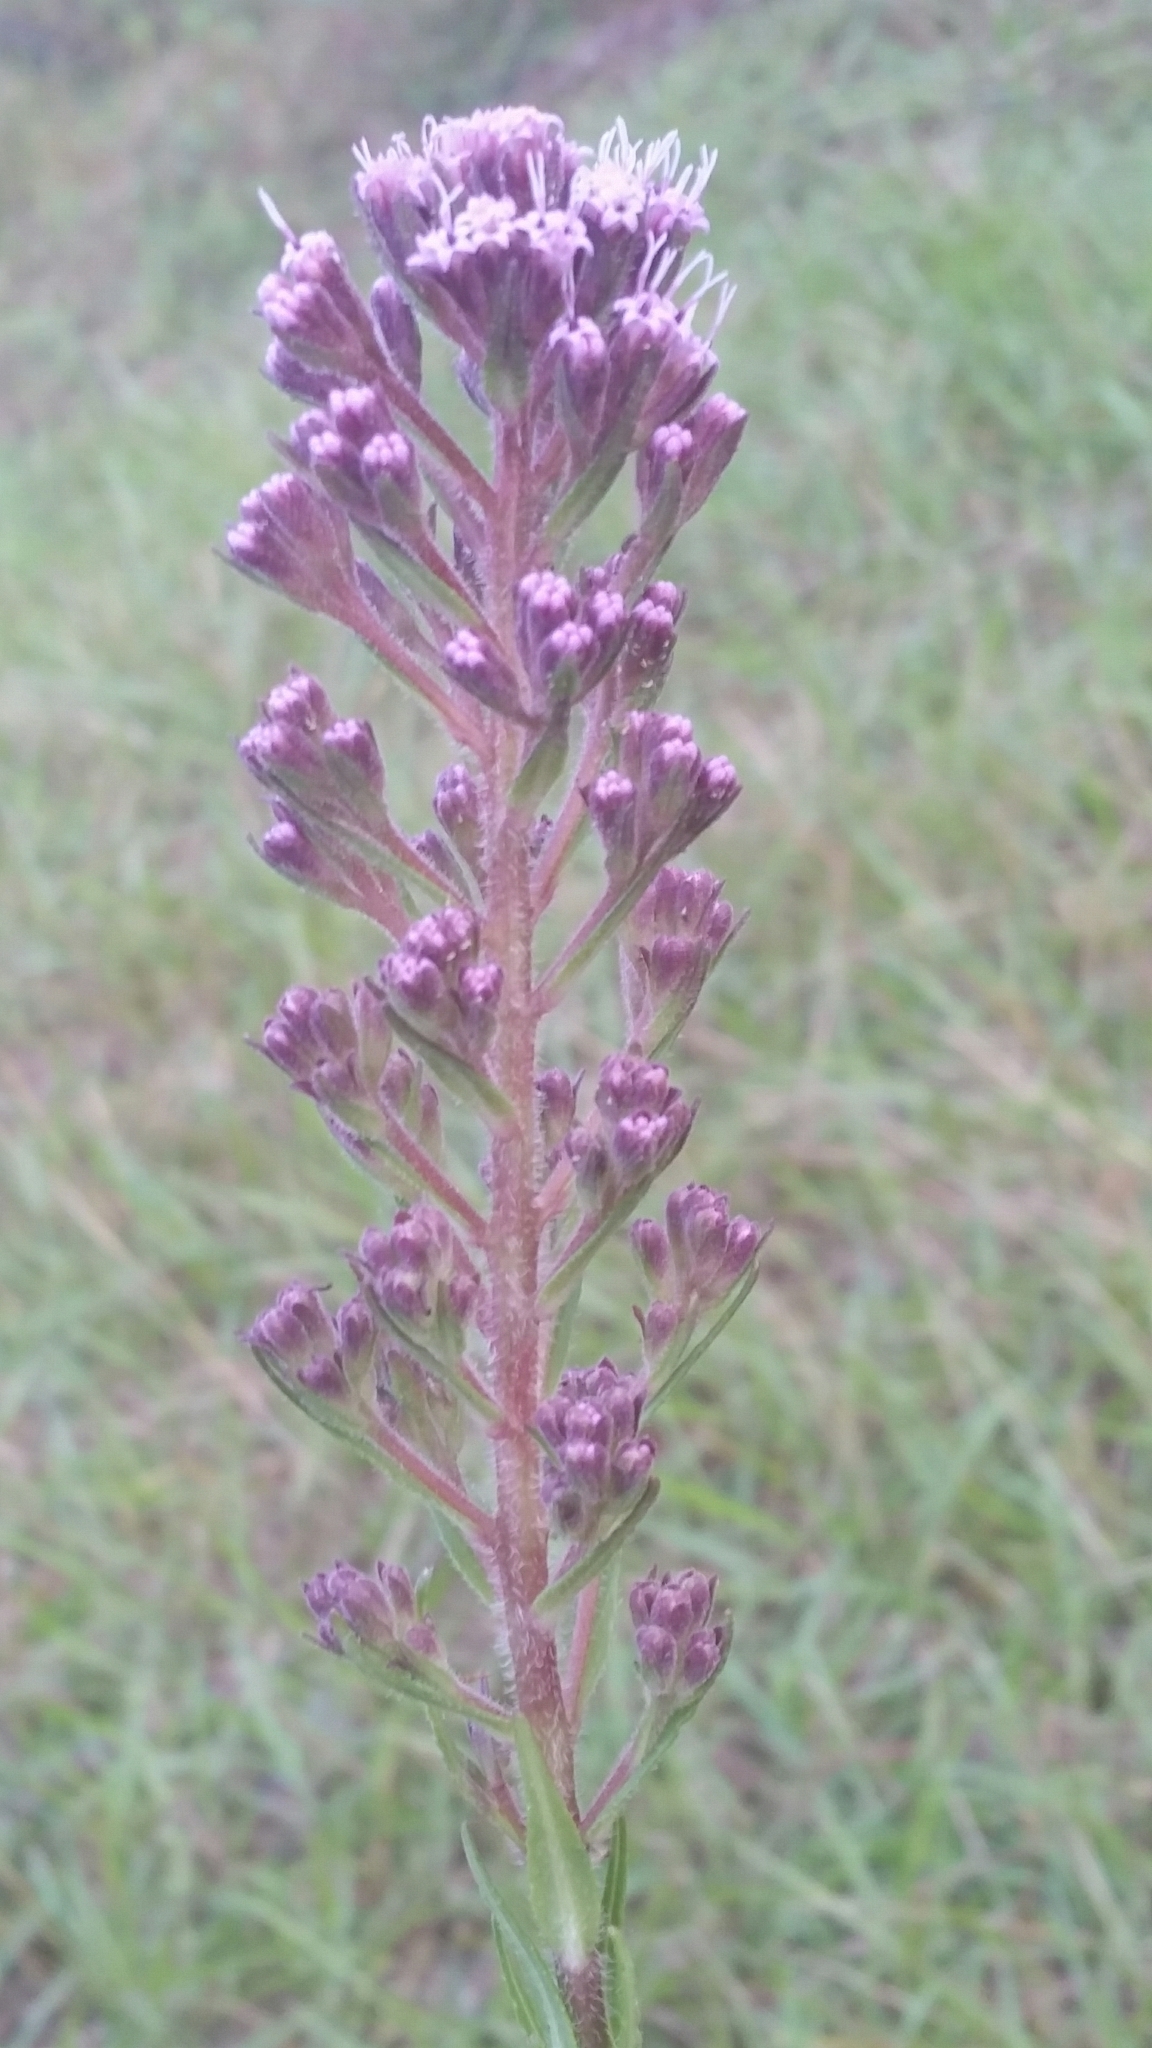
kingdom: Plantae
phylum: Tracheophyta
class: Magnoliopsida
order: Asterales
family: Asteraceae
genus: Carphephorus
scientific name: Carphephorus paniculatus
